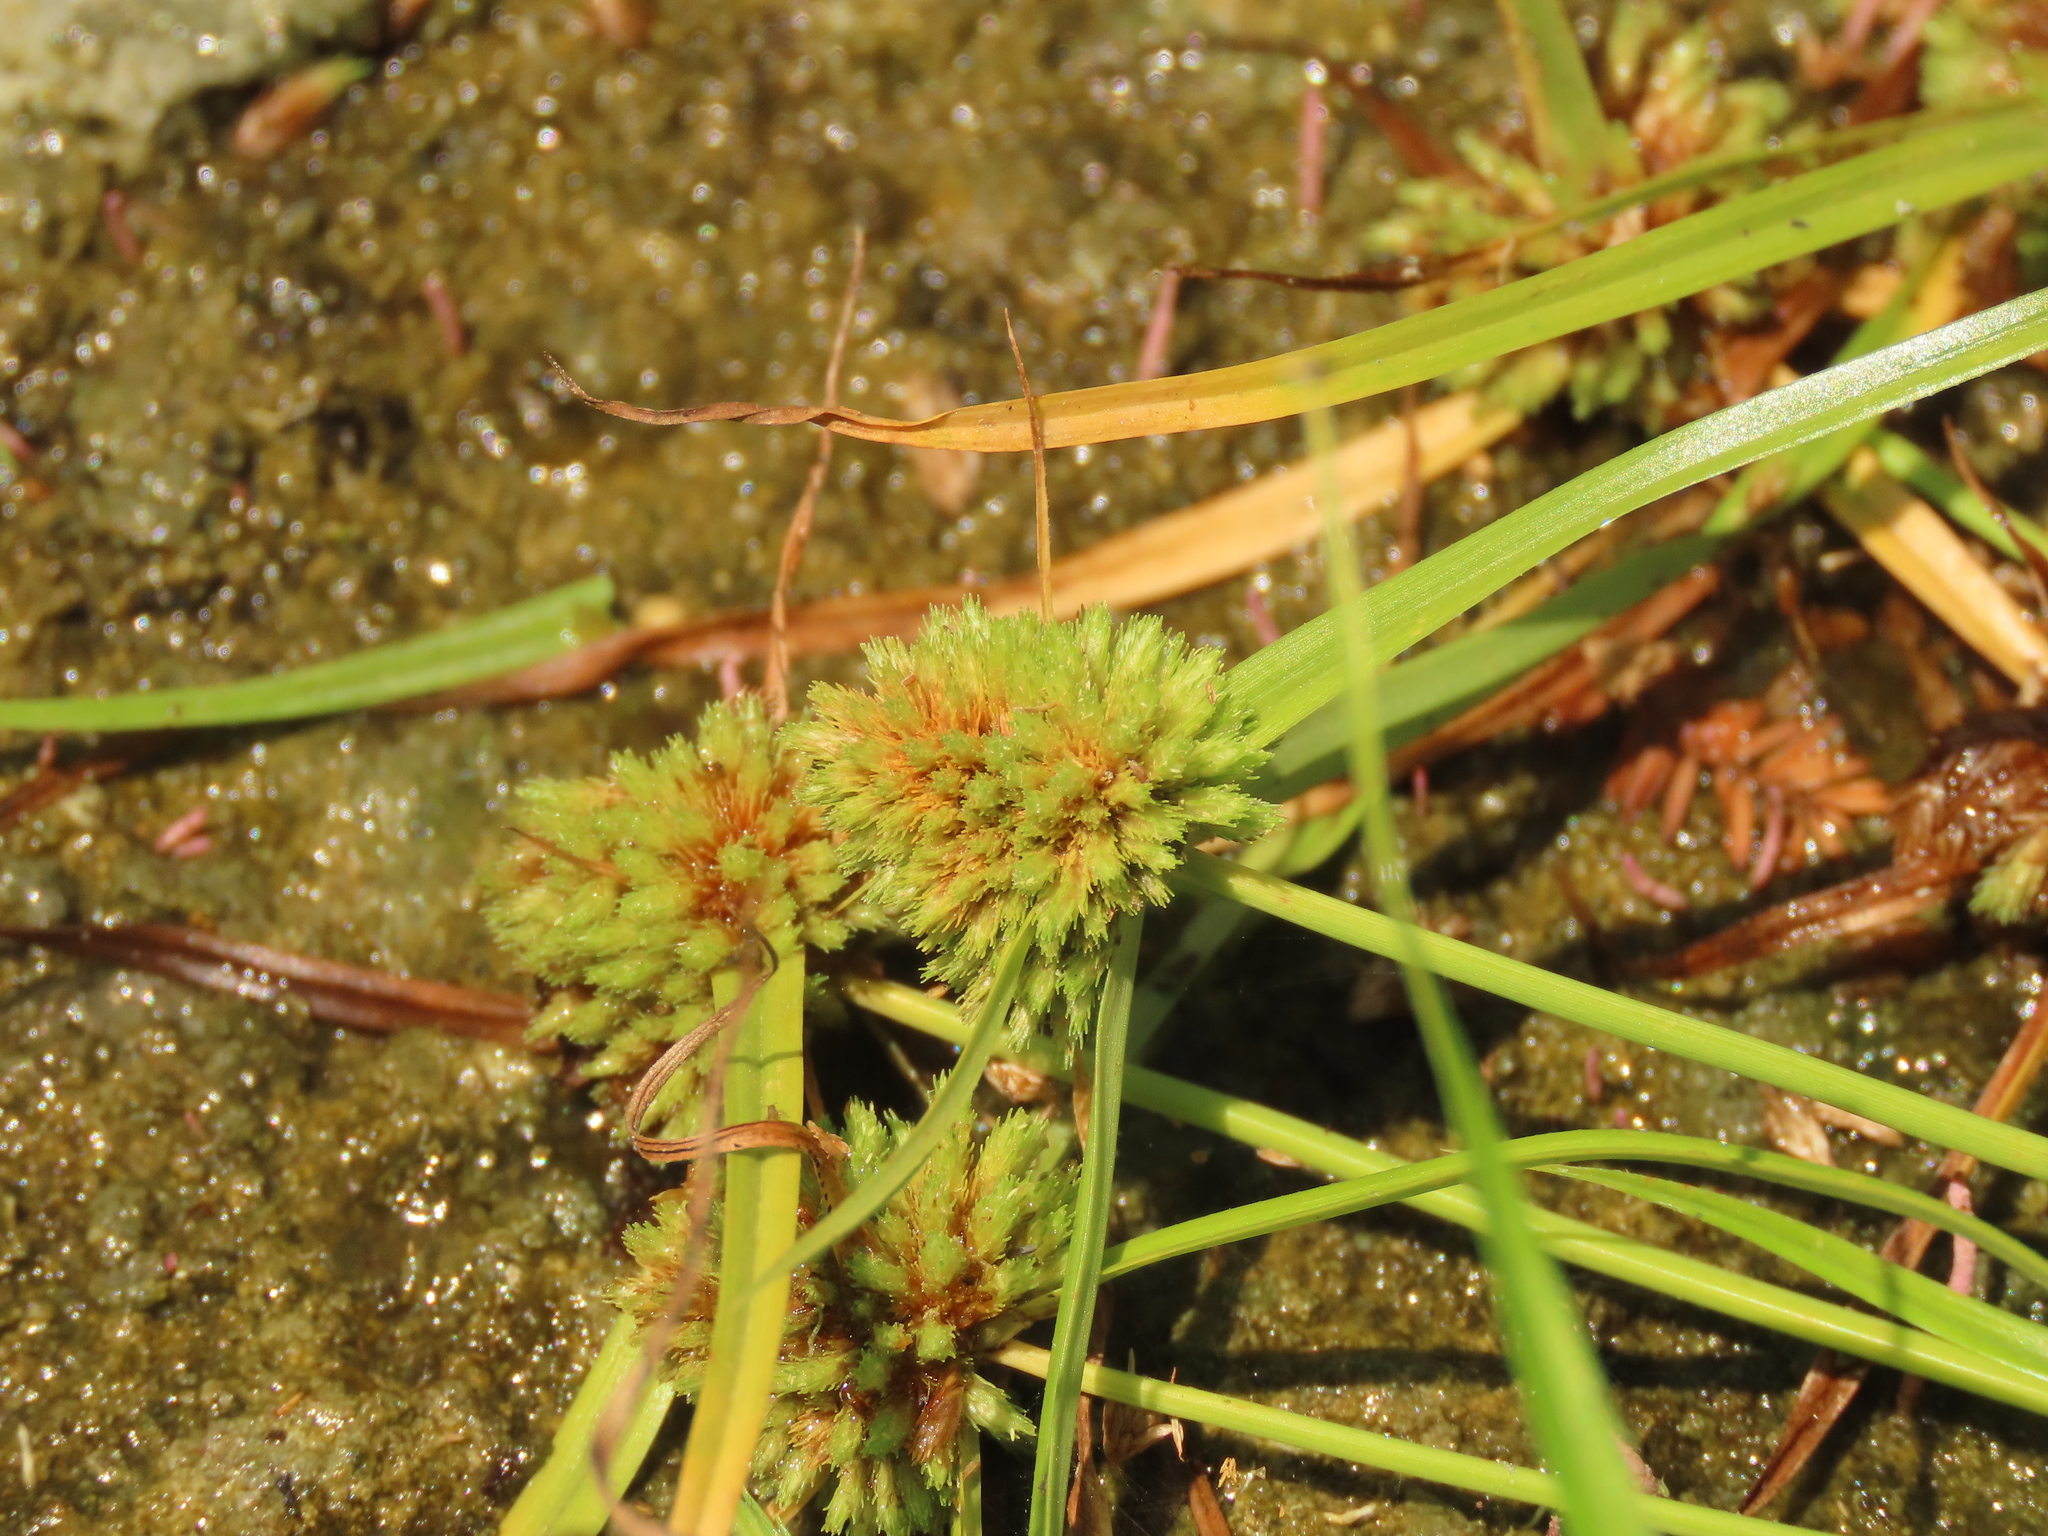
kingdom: Plantae
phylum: Tracheophyta
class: Liliopsida
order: Poales
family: Cyperaceae
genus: Cyperus
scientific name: Cyperus michelianus
